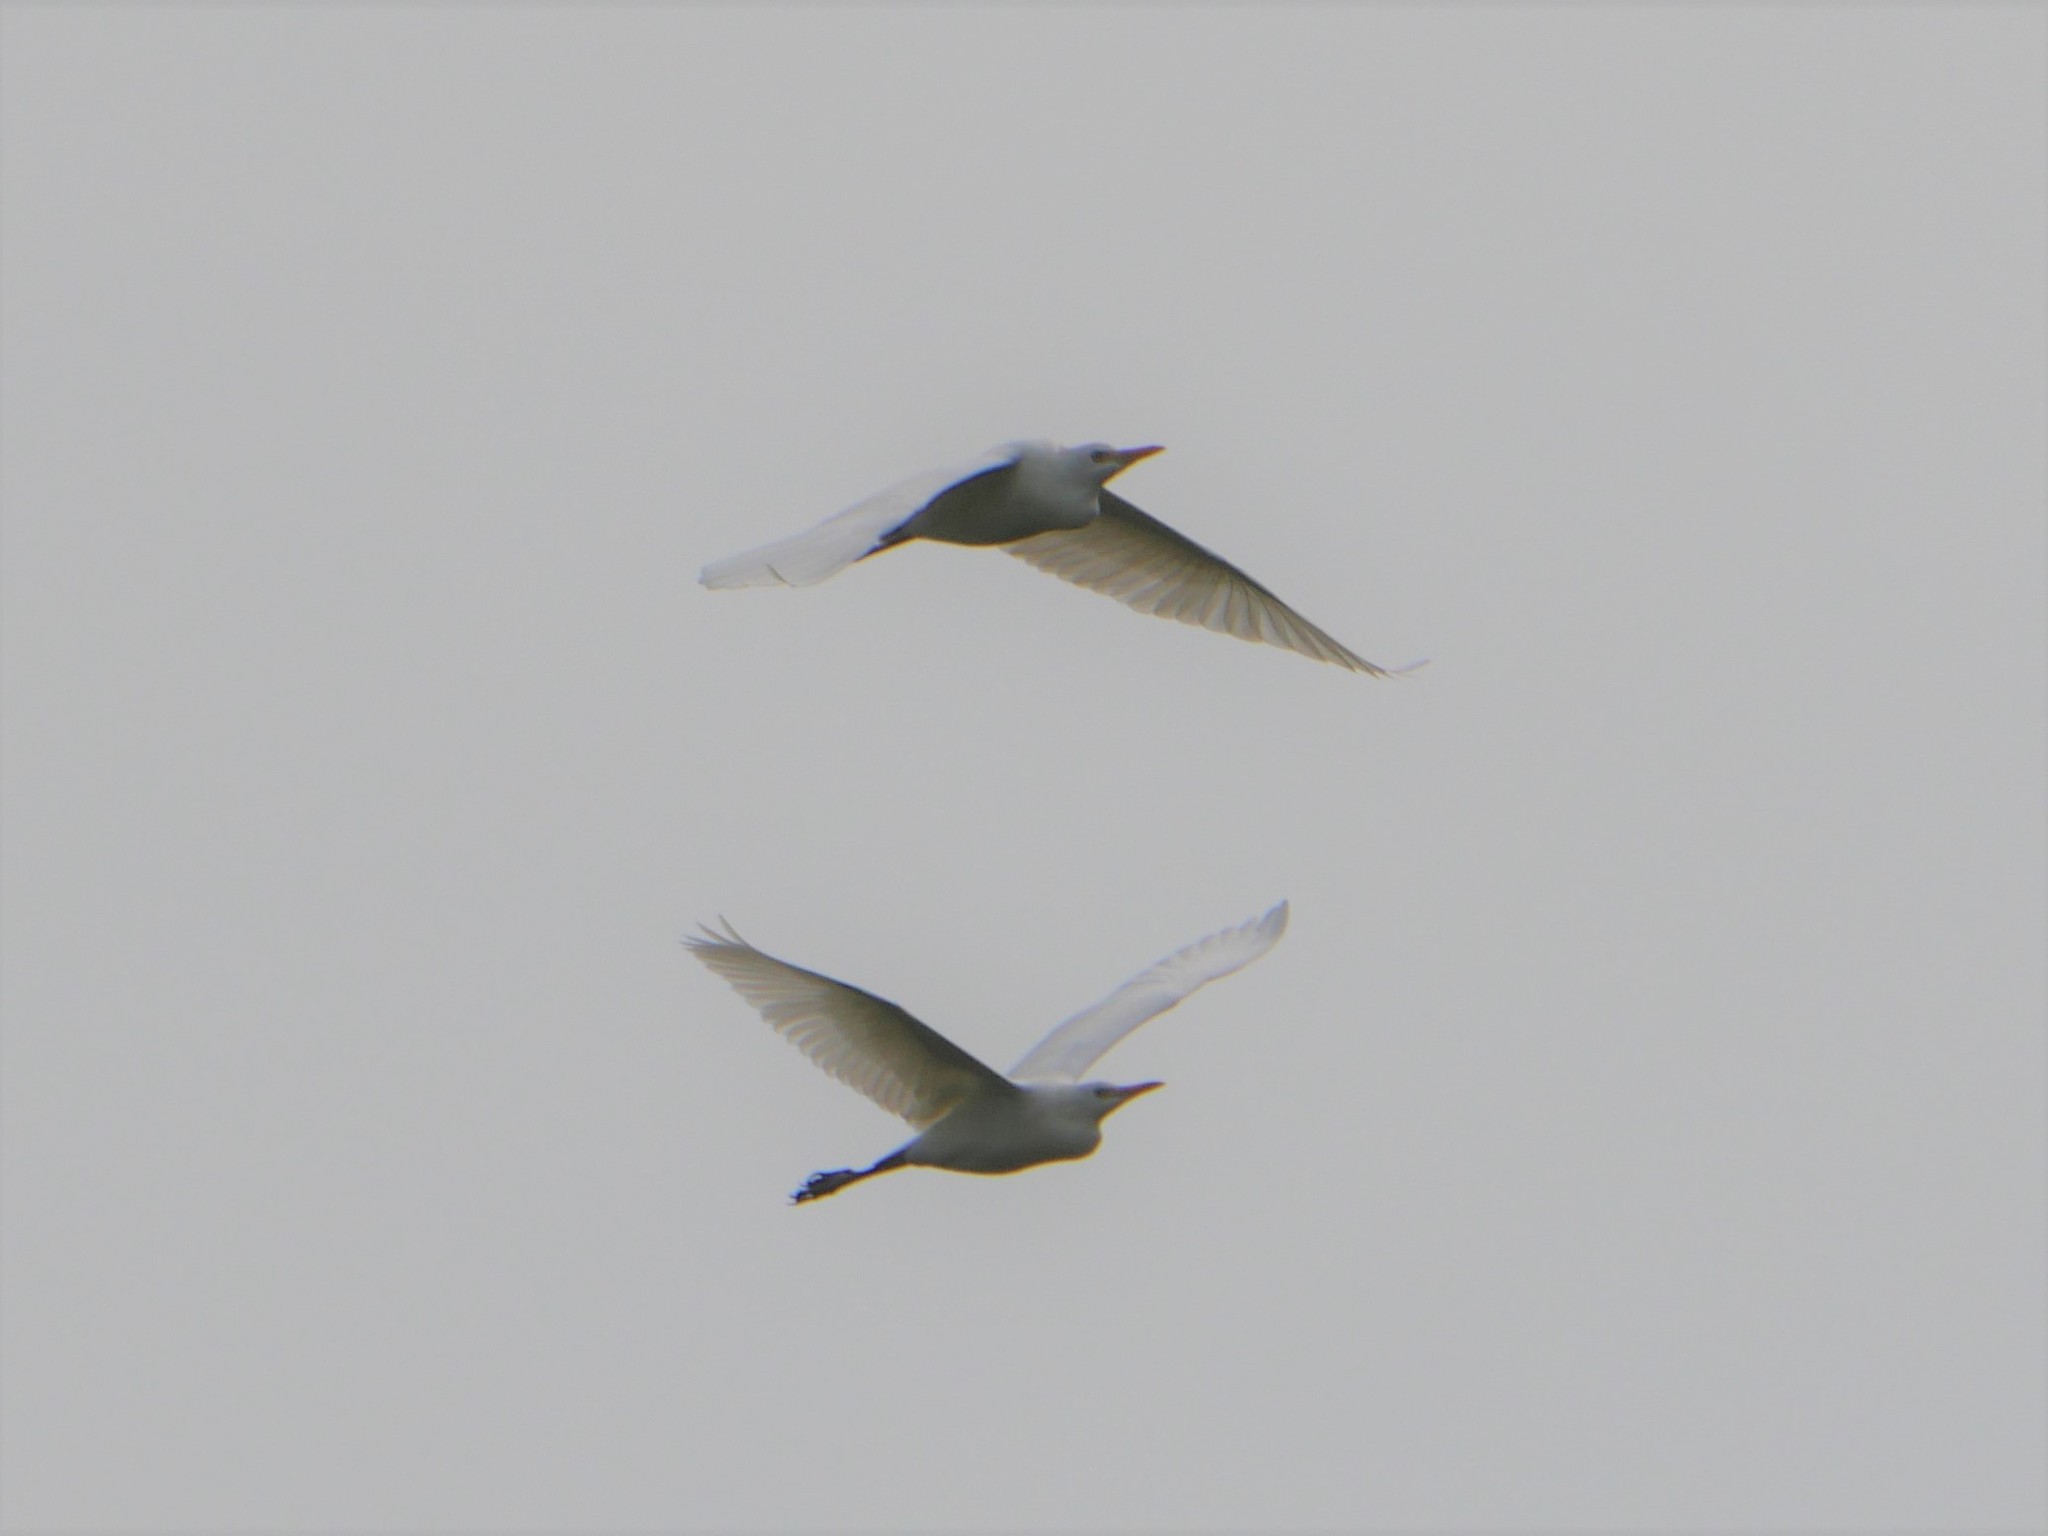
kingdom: Animalia
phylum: Chordata
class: Aves
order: Pelecaniformes
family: Ardeidae
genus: Bubulcus
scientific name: Bubulcus ibis
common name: Cattle egret
